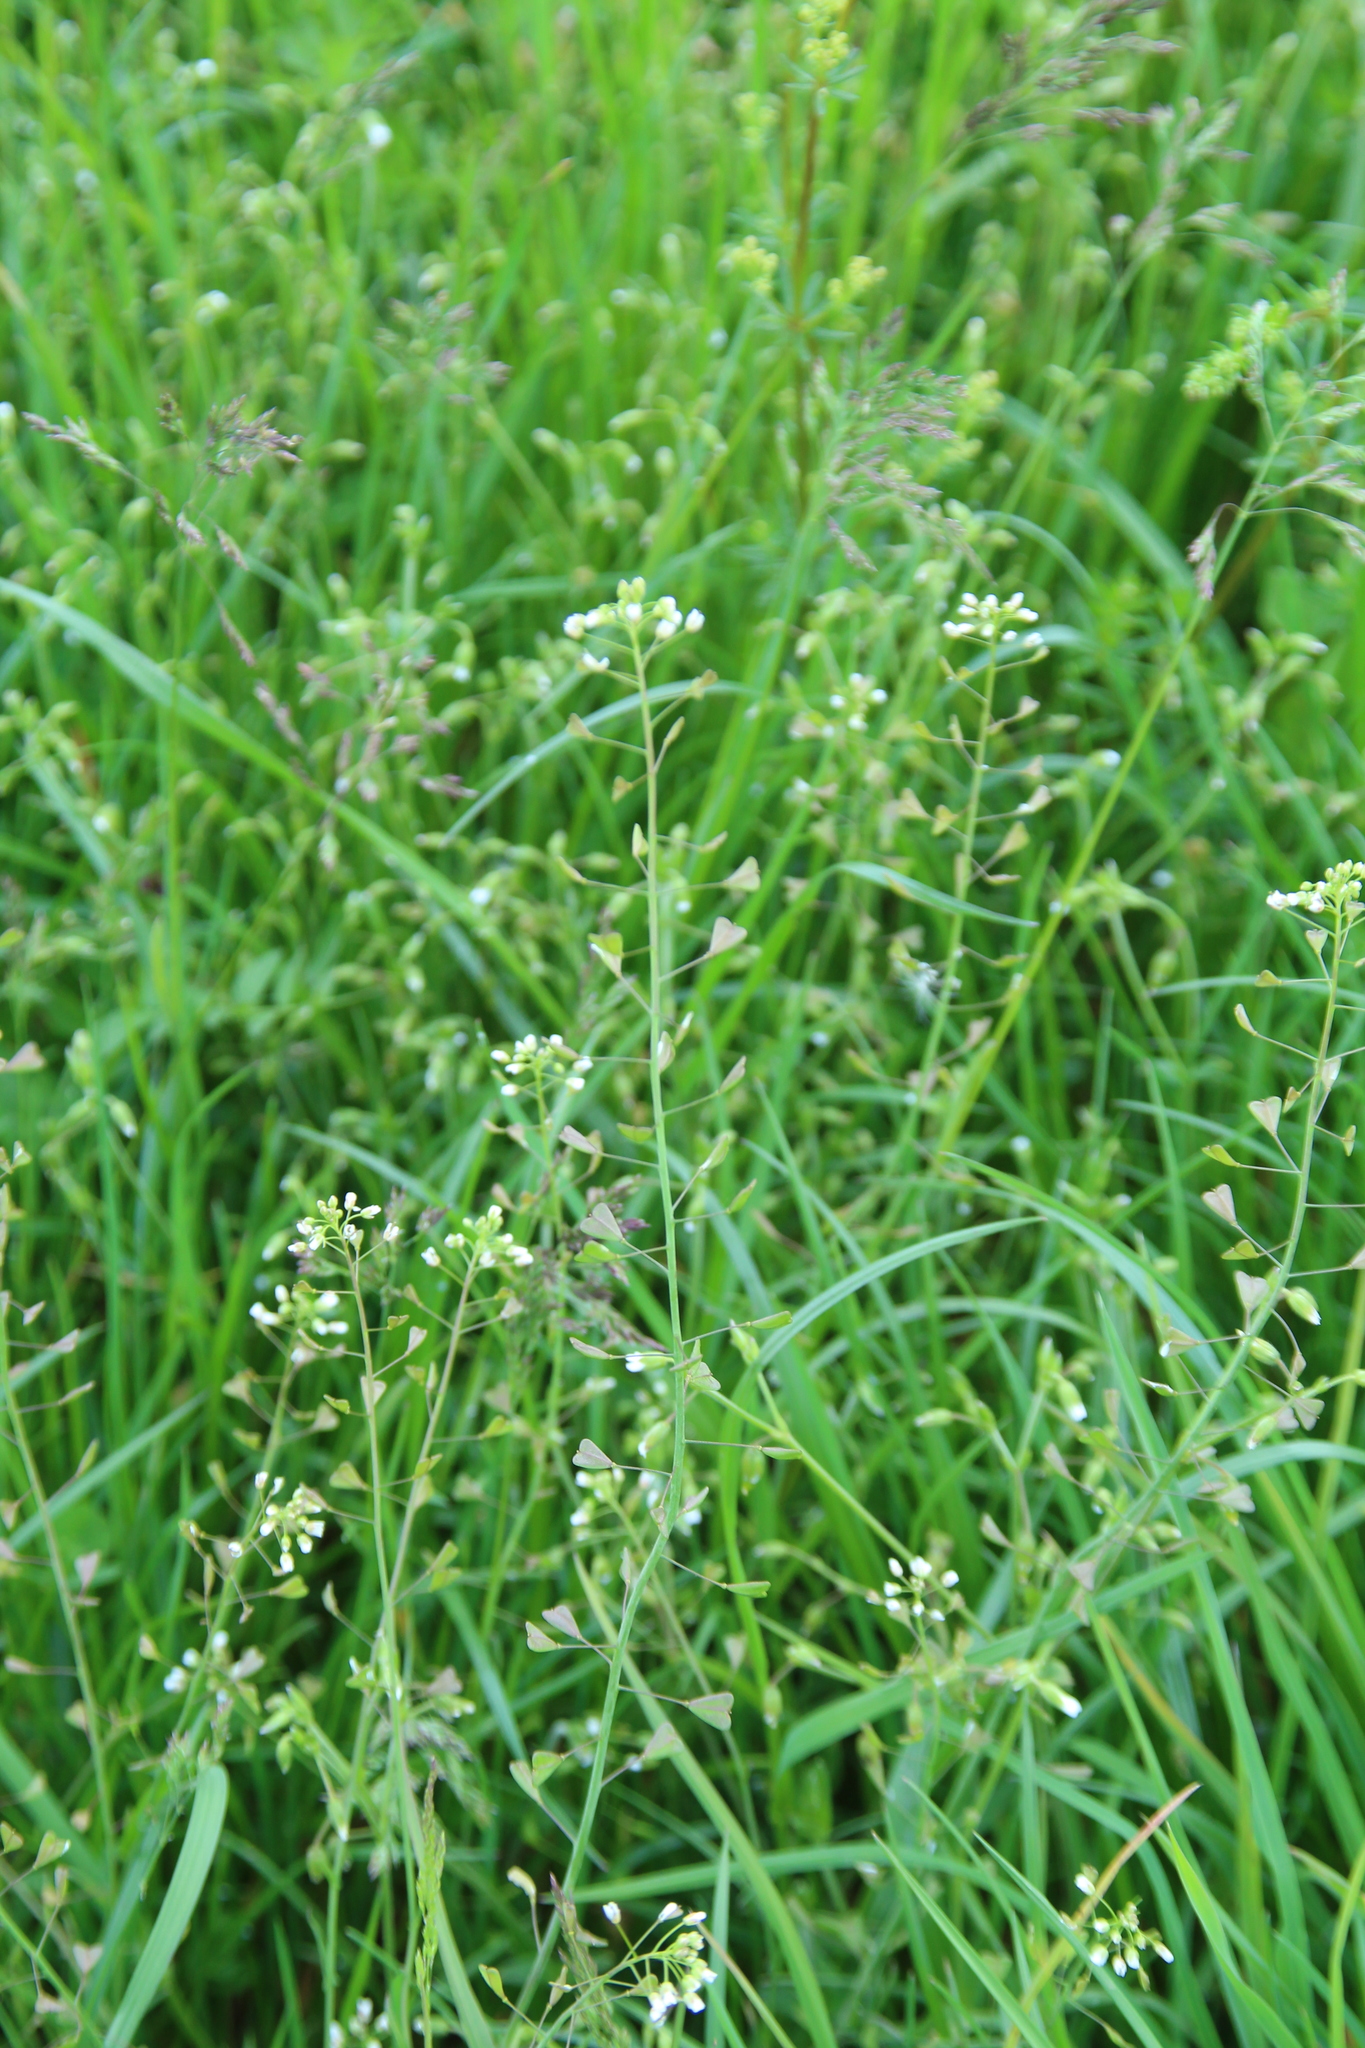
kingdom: Plantae
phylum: Tracheophyta
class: Magnoliopsida
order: Brassicales
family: Brassicaceae
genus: Capsella
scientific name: Capsella bursa-pastoris
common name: Shepherd's purse
